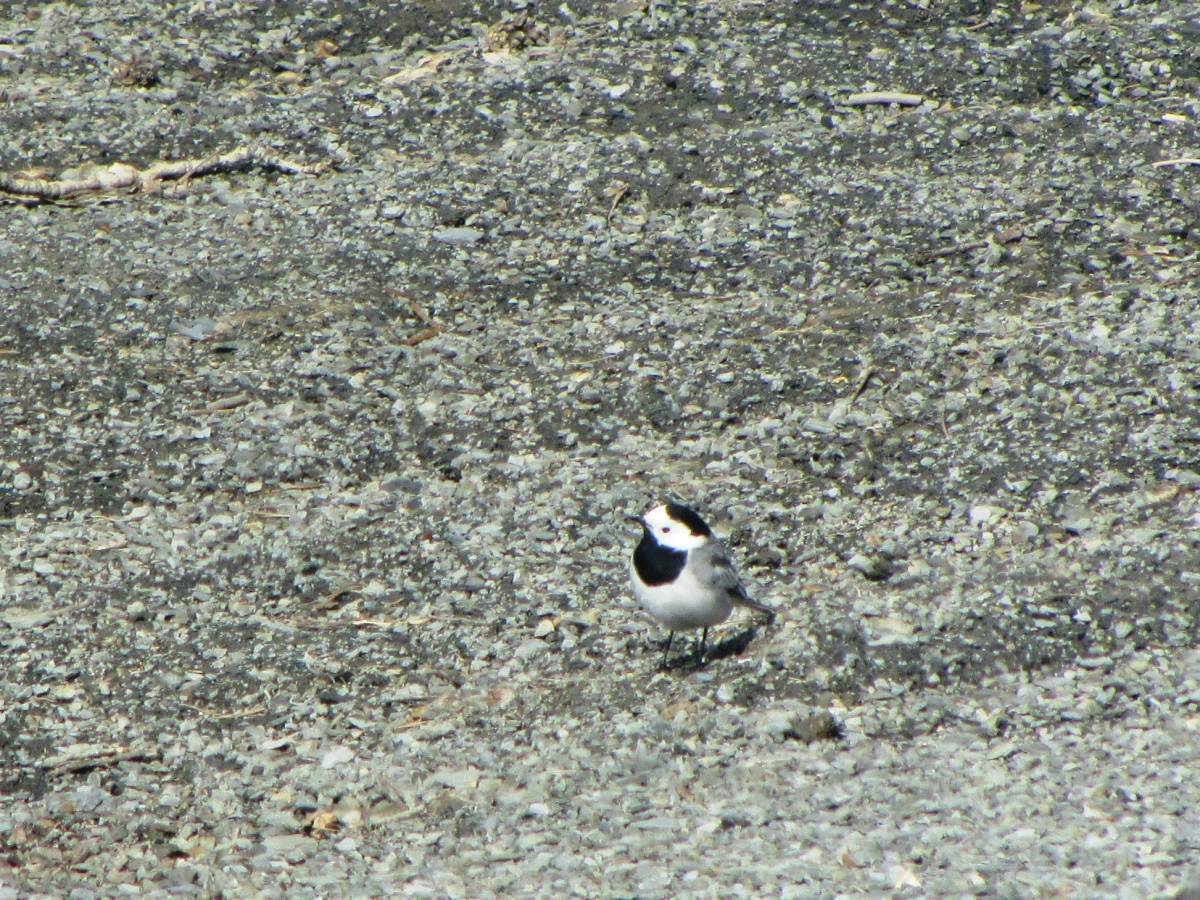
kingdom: Animalia
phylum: Chordata
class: Aves
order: Passeriformes
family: Motacillidae
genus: Motacilla
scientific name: Motacilla alba
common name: White wagtail
